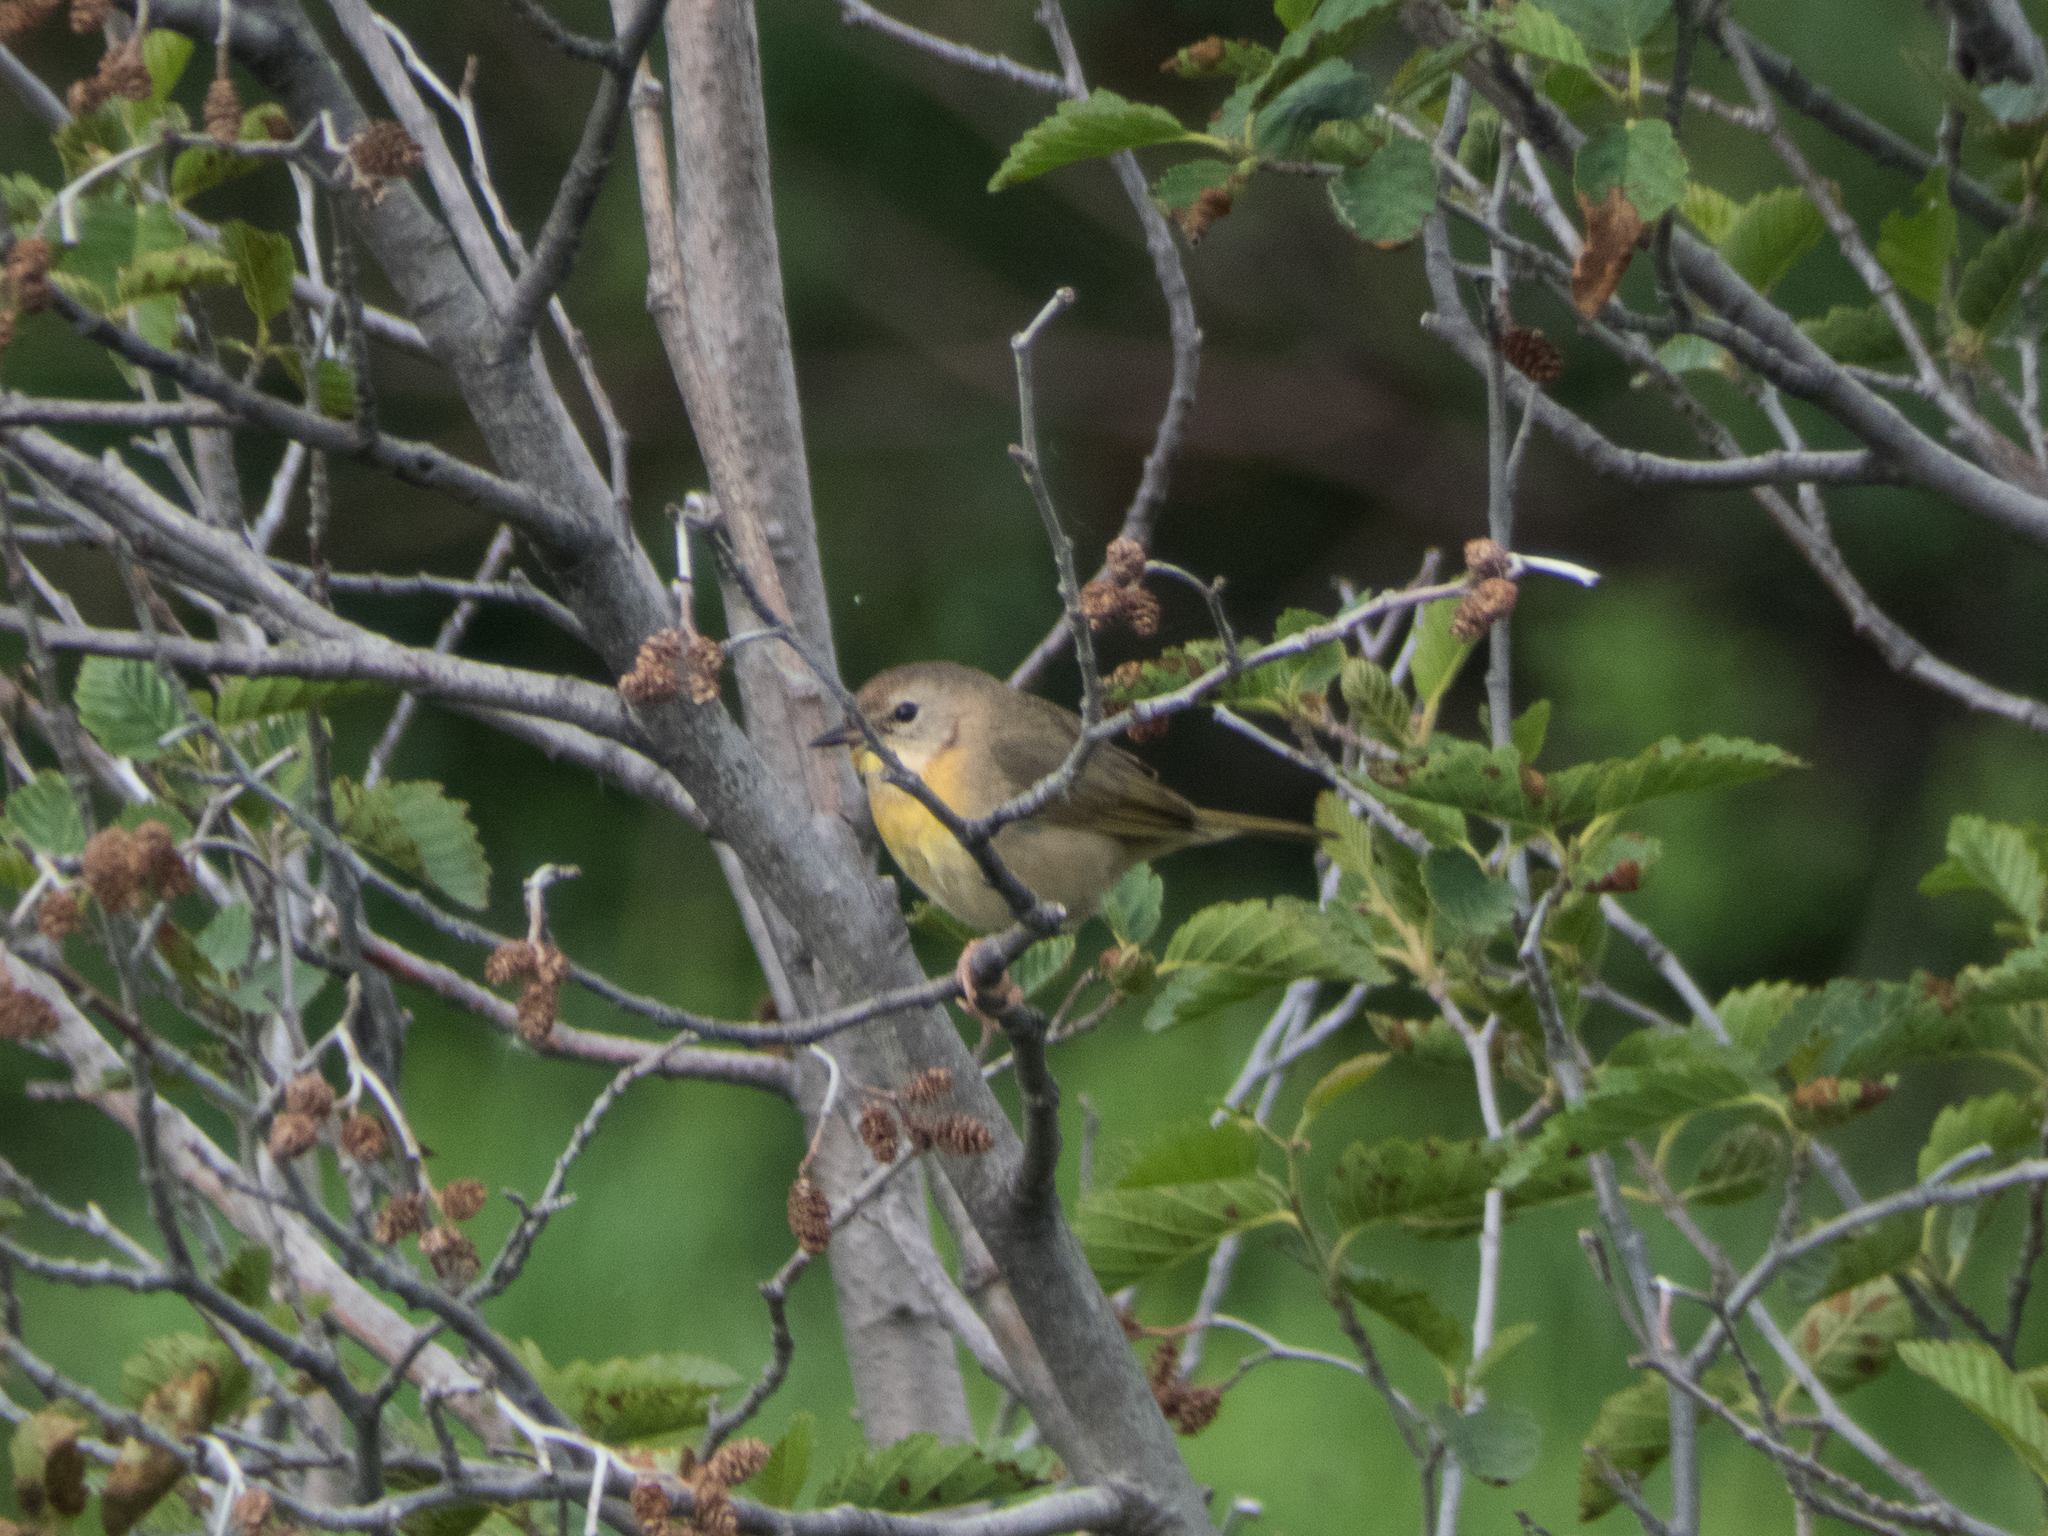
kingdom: Animalia
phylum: Chordata
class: Aves
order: Passeriformes
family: Parulidae
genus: Geothlypis
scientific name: Geothlypis trichas
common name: Common yellowthroat
